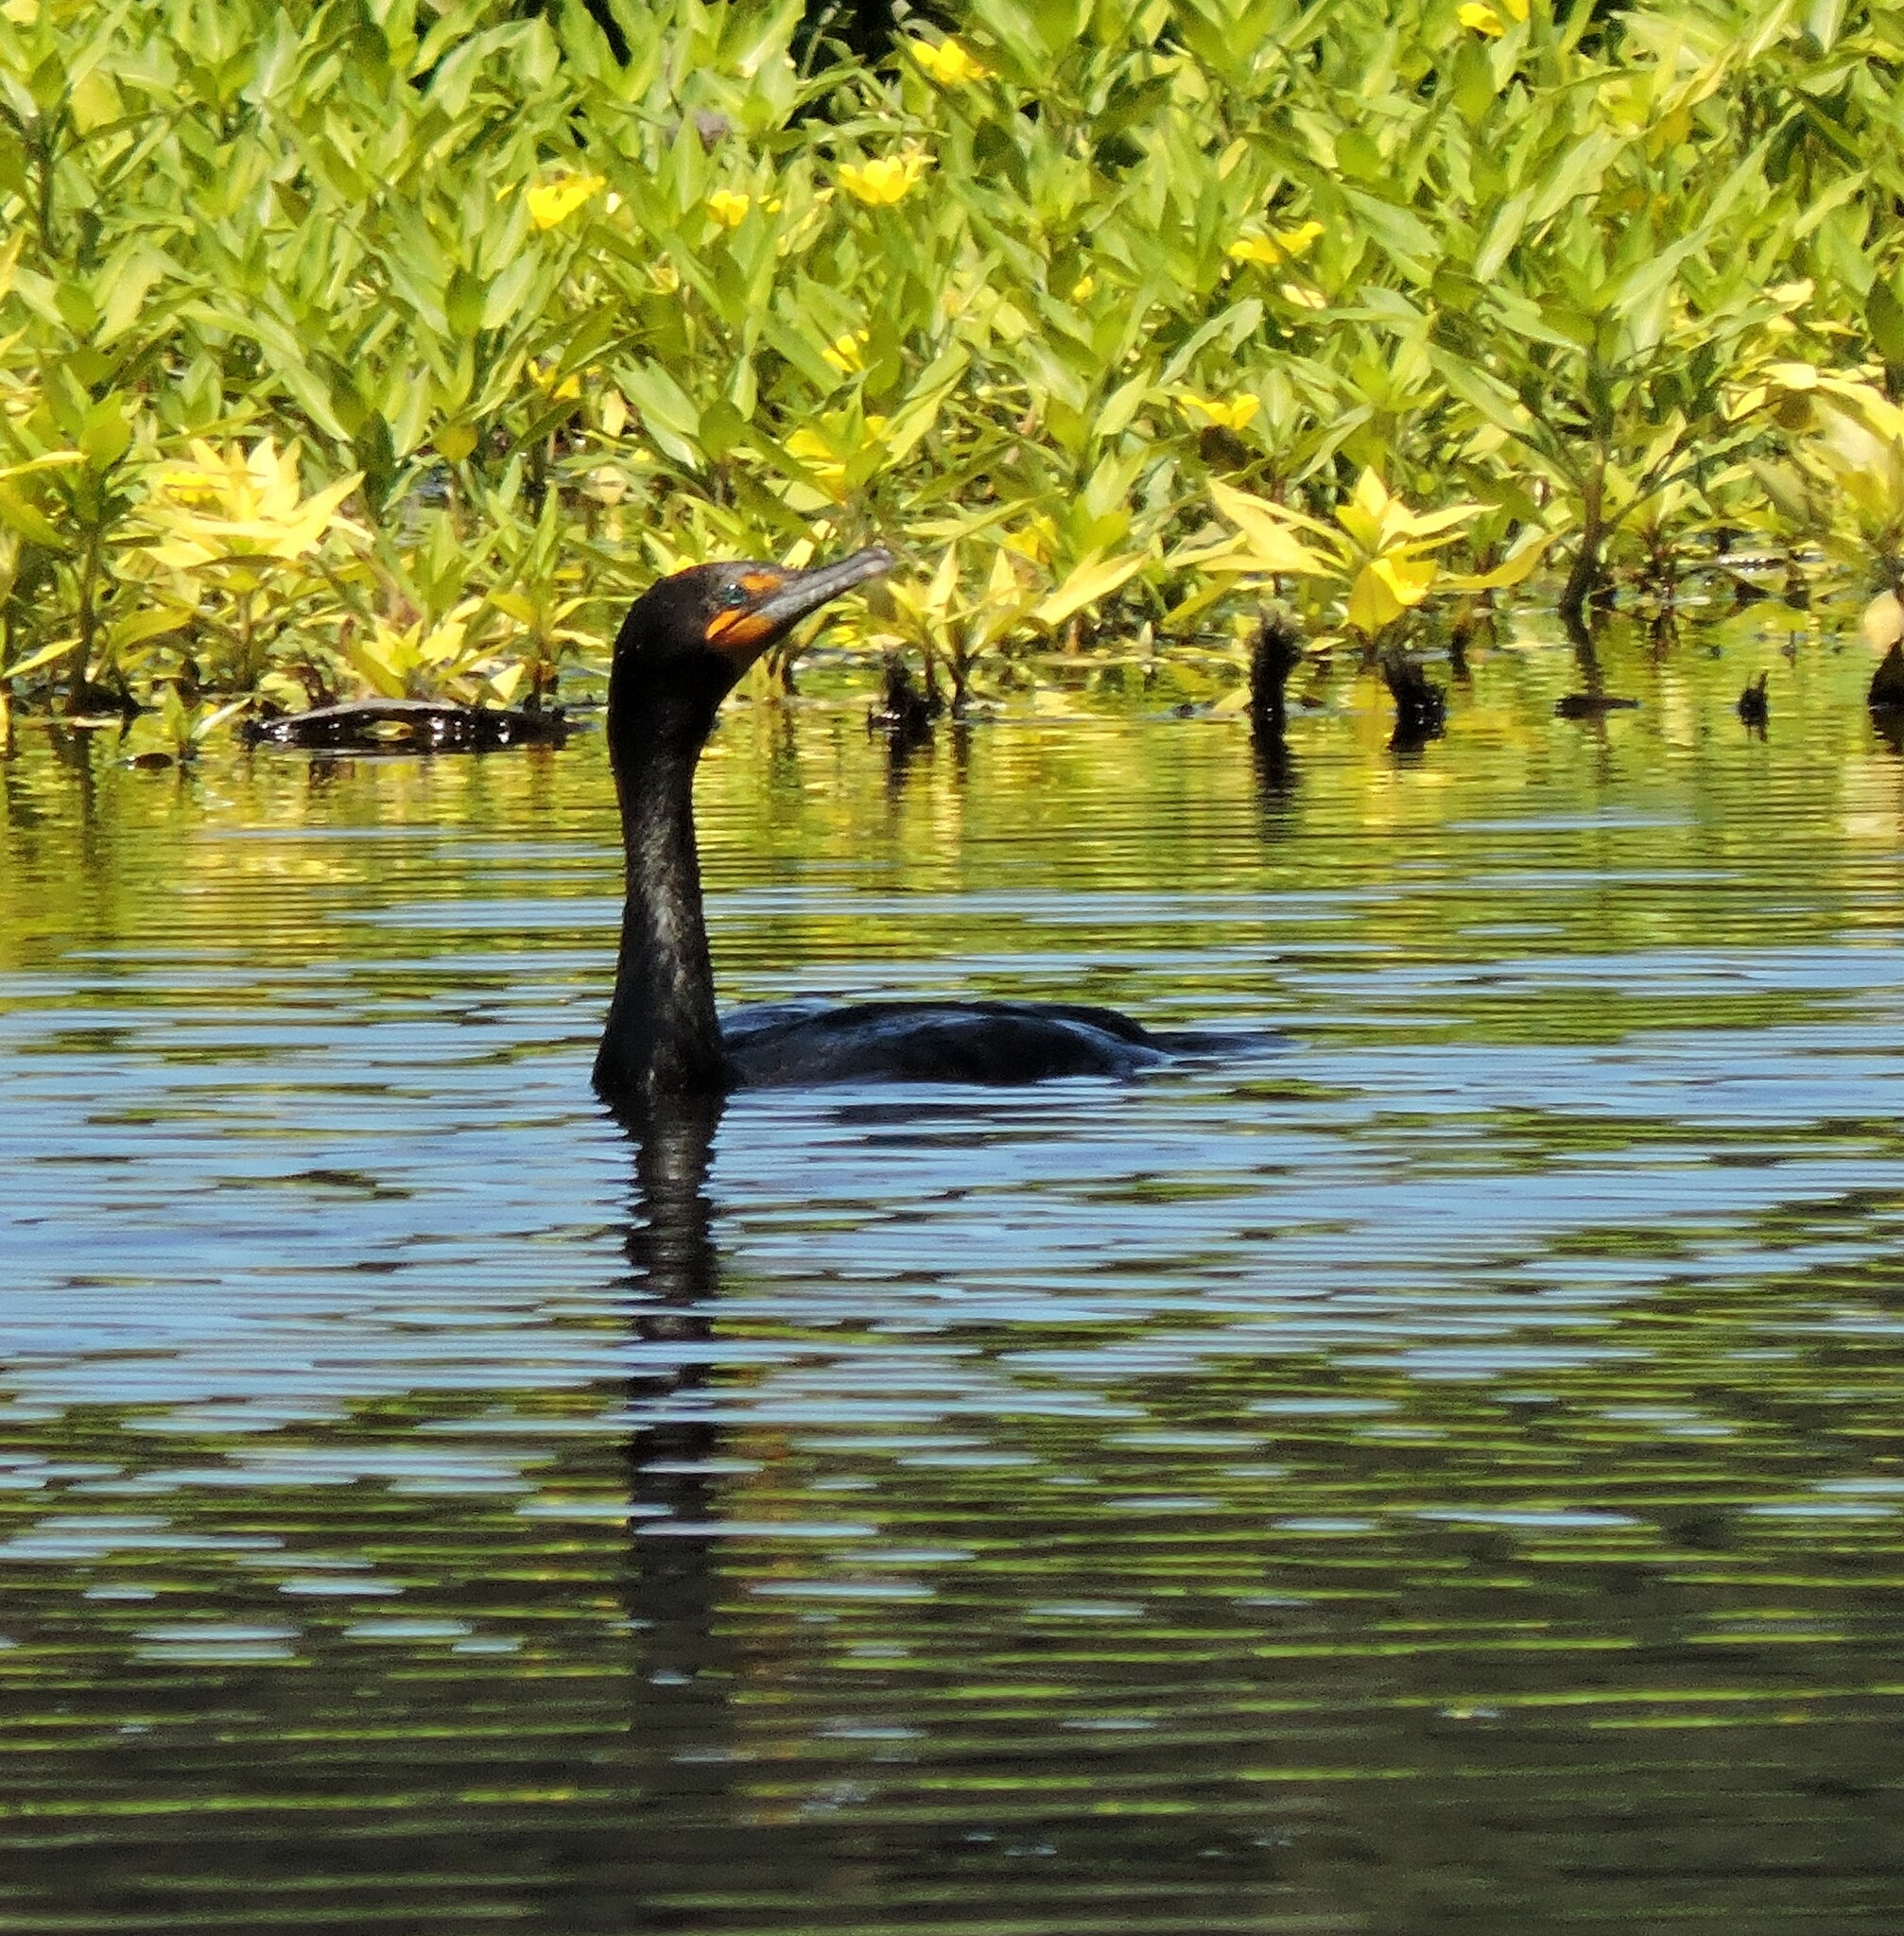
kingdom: Animalia
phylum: Chordata
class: Aves
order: Suliformes
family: Phalacrocoracidae
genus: Phalacrocorax
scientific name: Phalacrocorax auritus
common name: Double-crested cormorant
